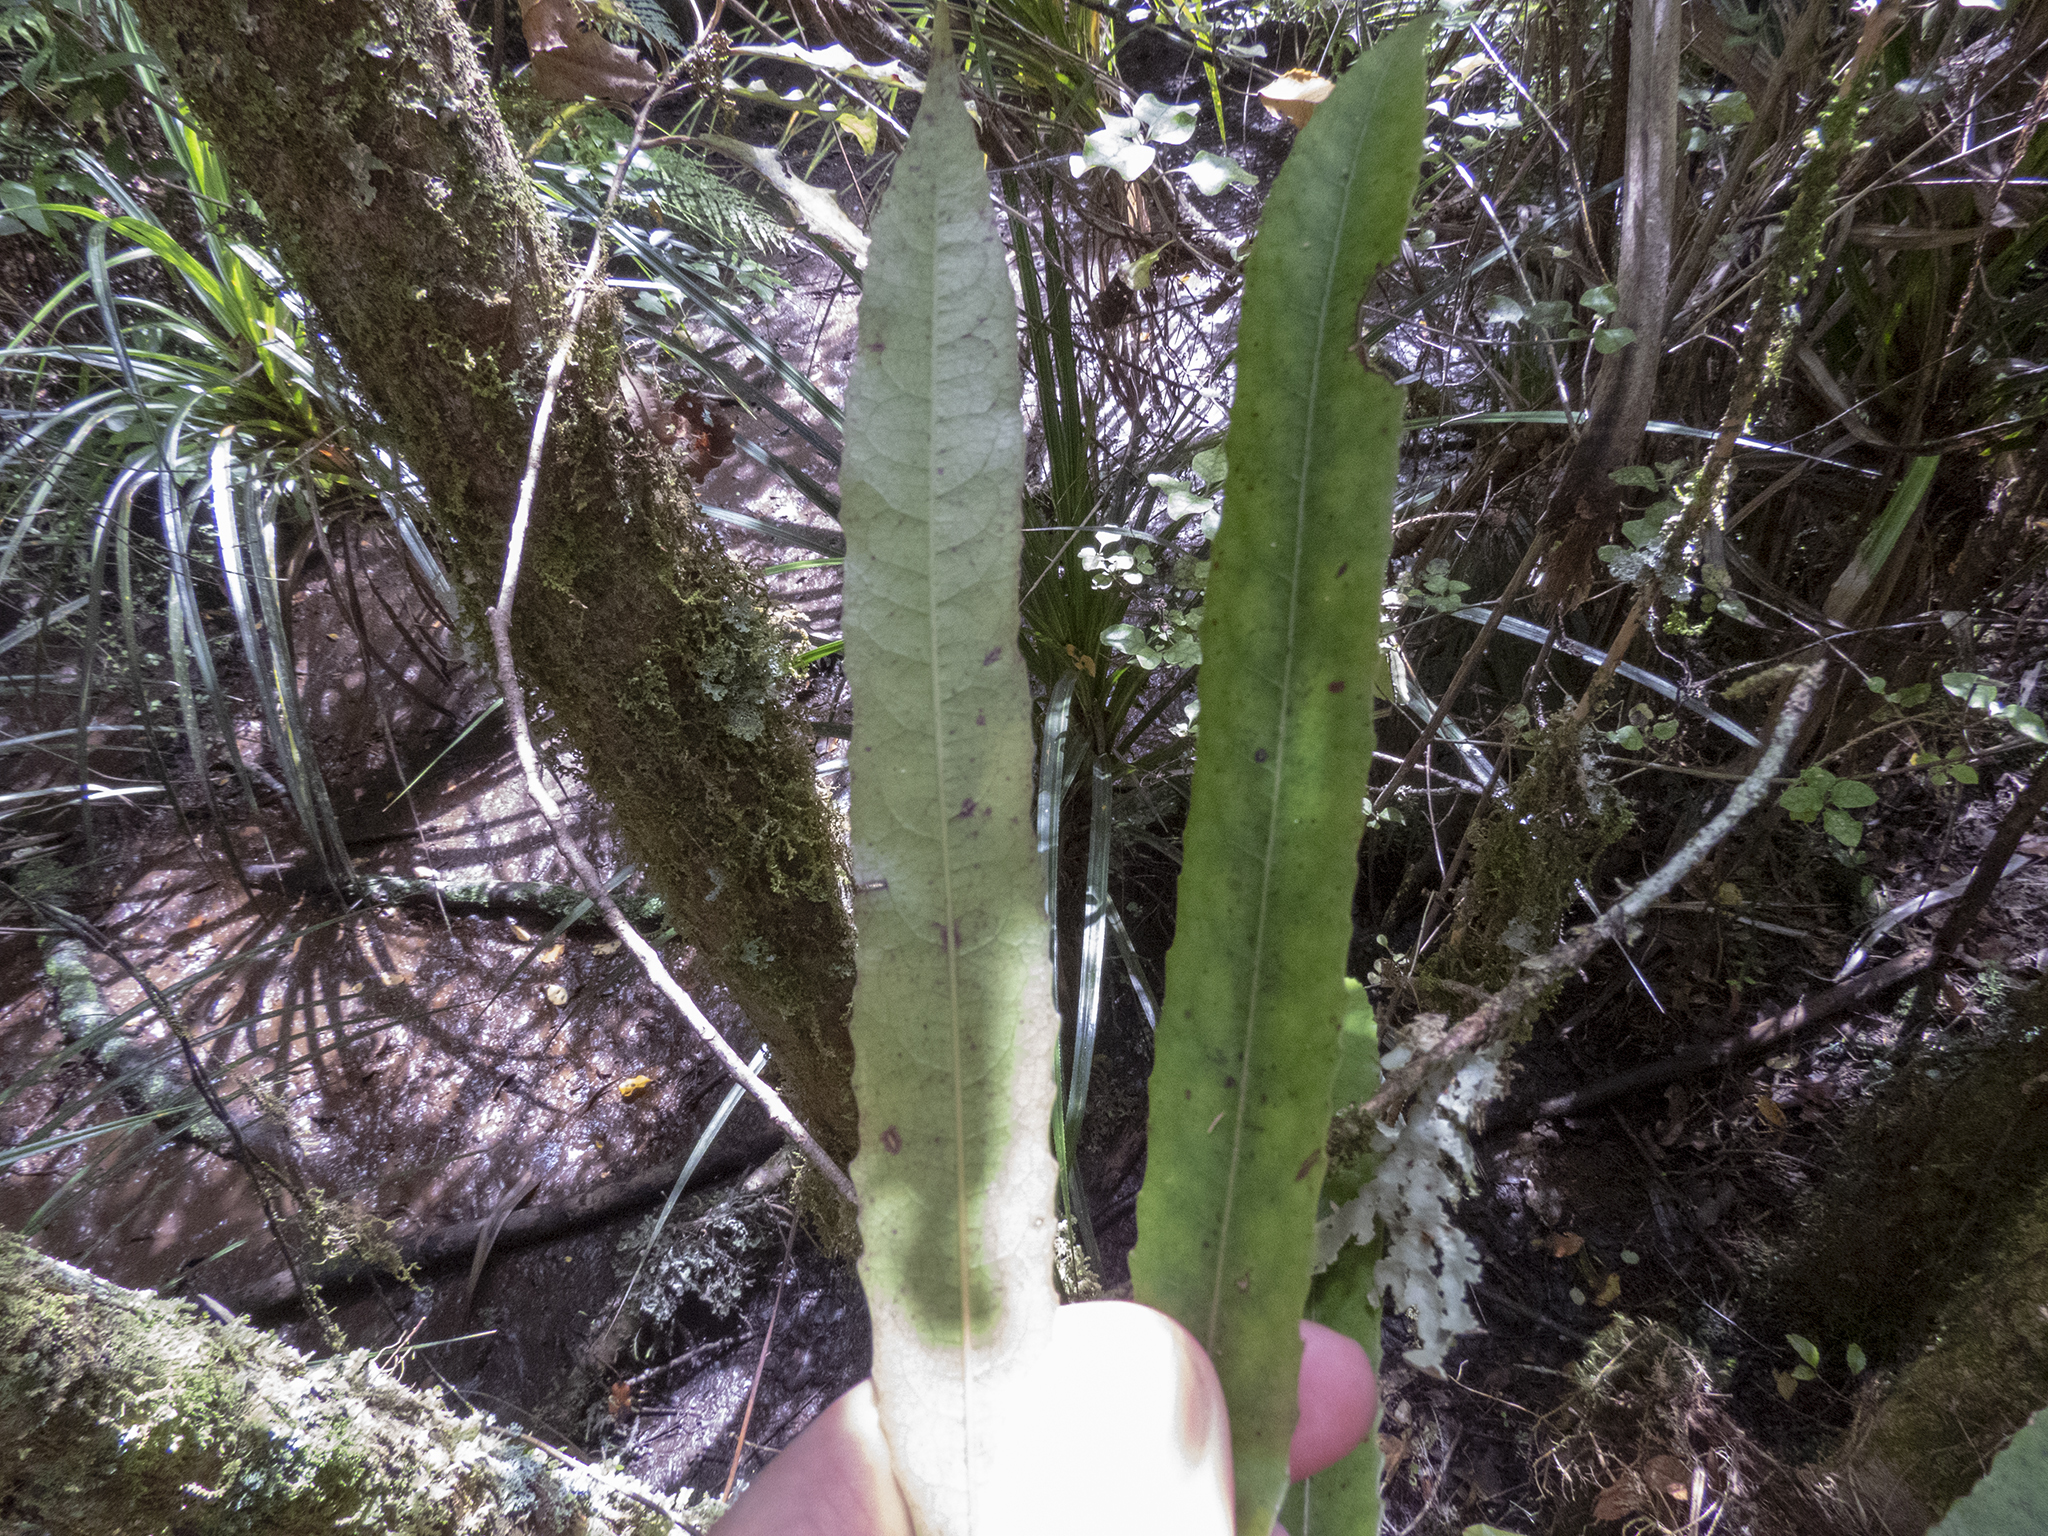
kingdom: Plantae
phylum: Tracheophyta
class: Magnoliopsida
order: Oxalidales
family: Elaeocarpaceae
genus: Elaeocarpus
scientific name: Elaeocarpus dentatus
